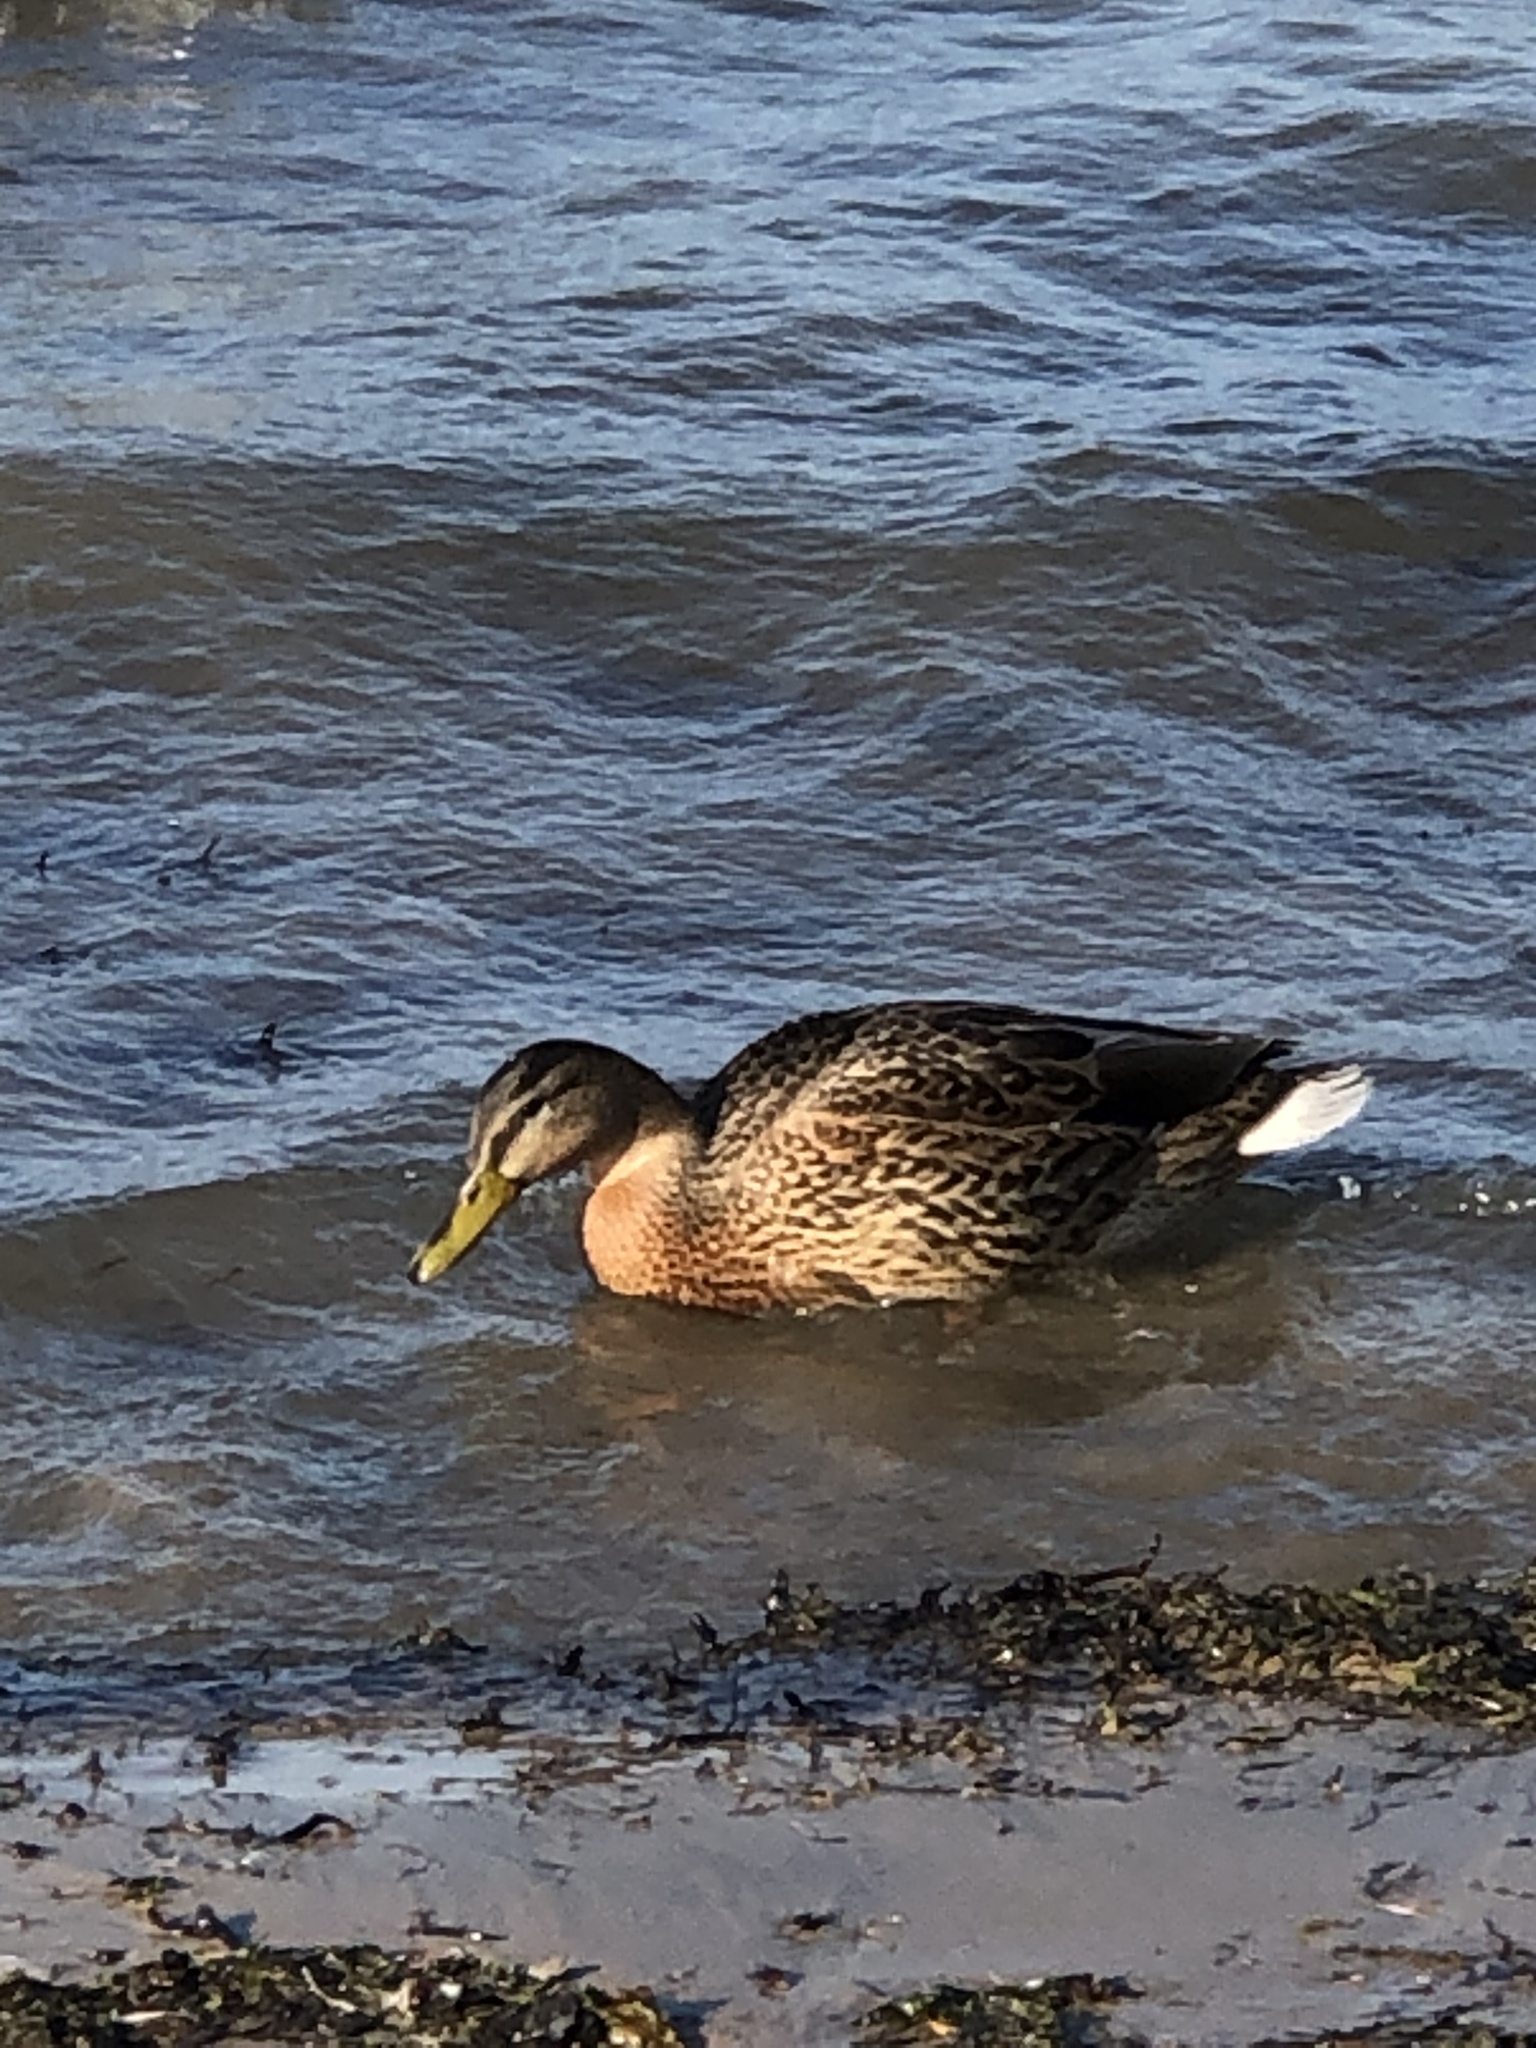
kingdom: Animalia
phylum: Chordata
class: Aves
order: Anseriformes
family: Anatidae
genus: Anas
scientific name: Anas platyrhynchos
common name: Mallard
